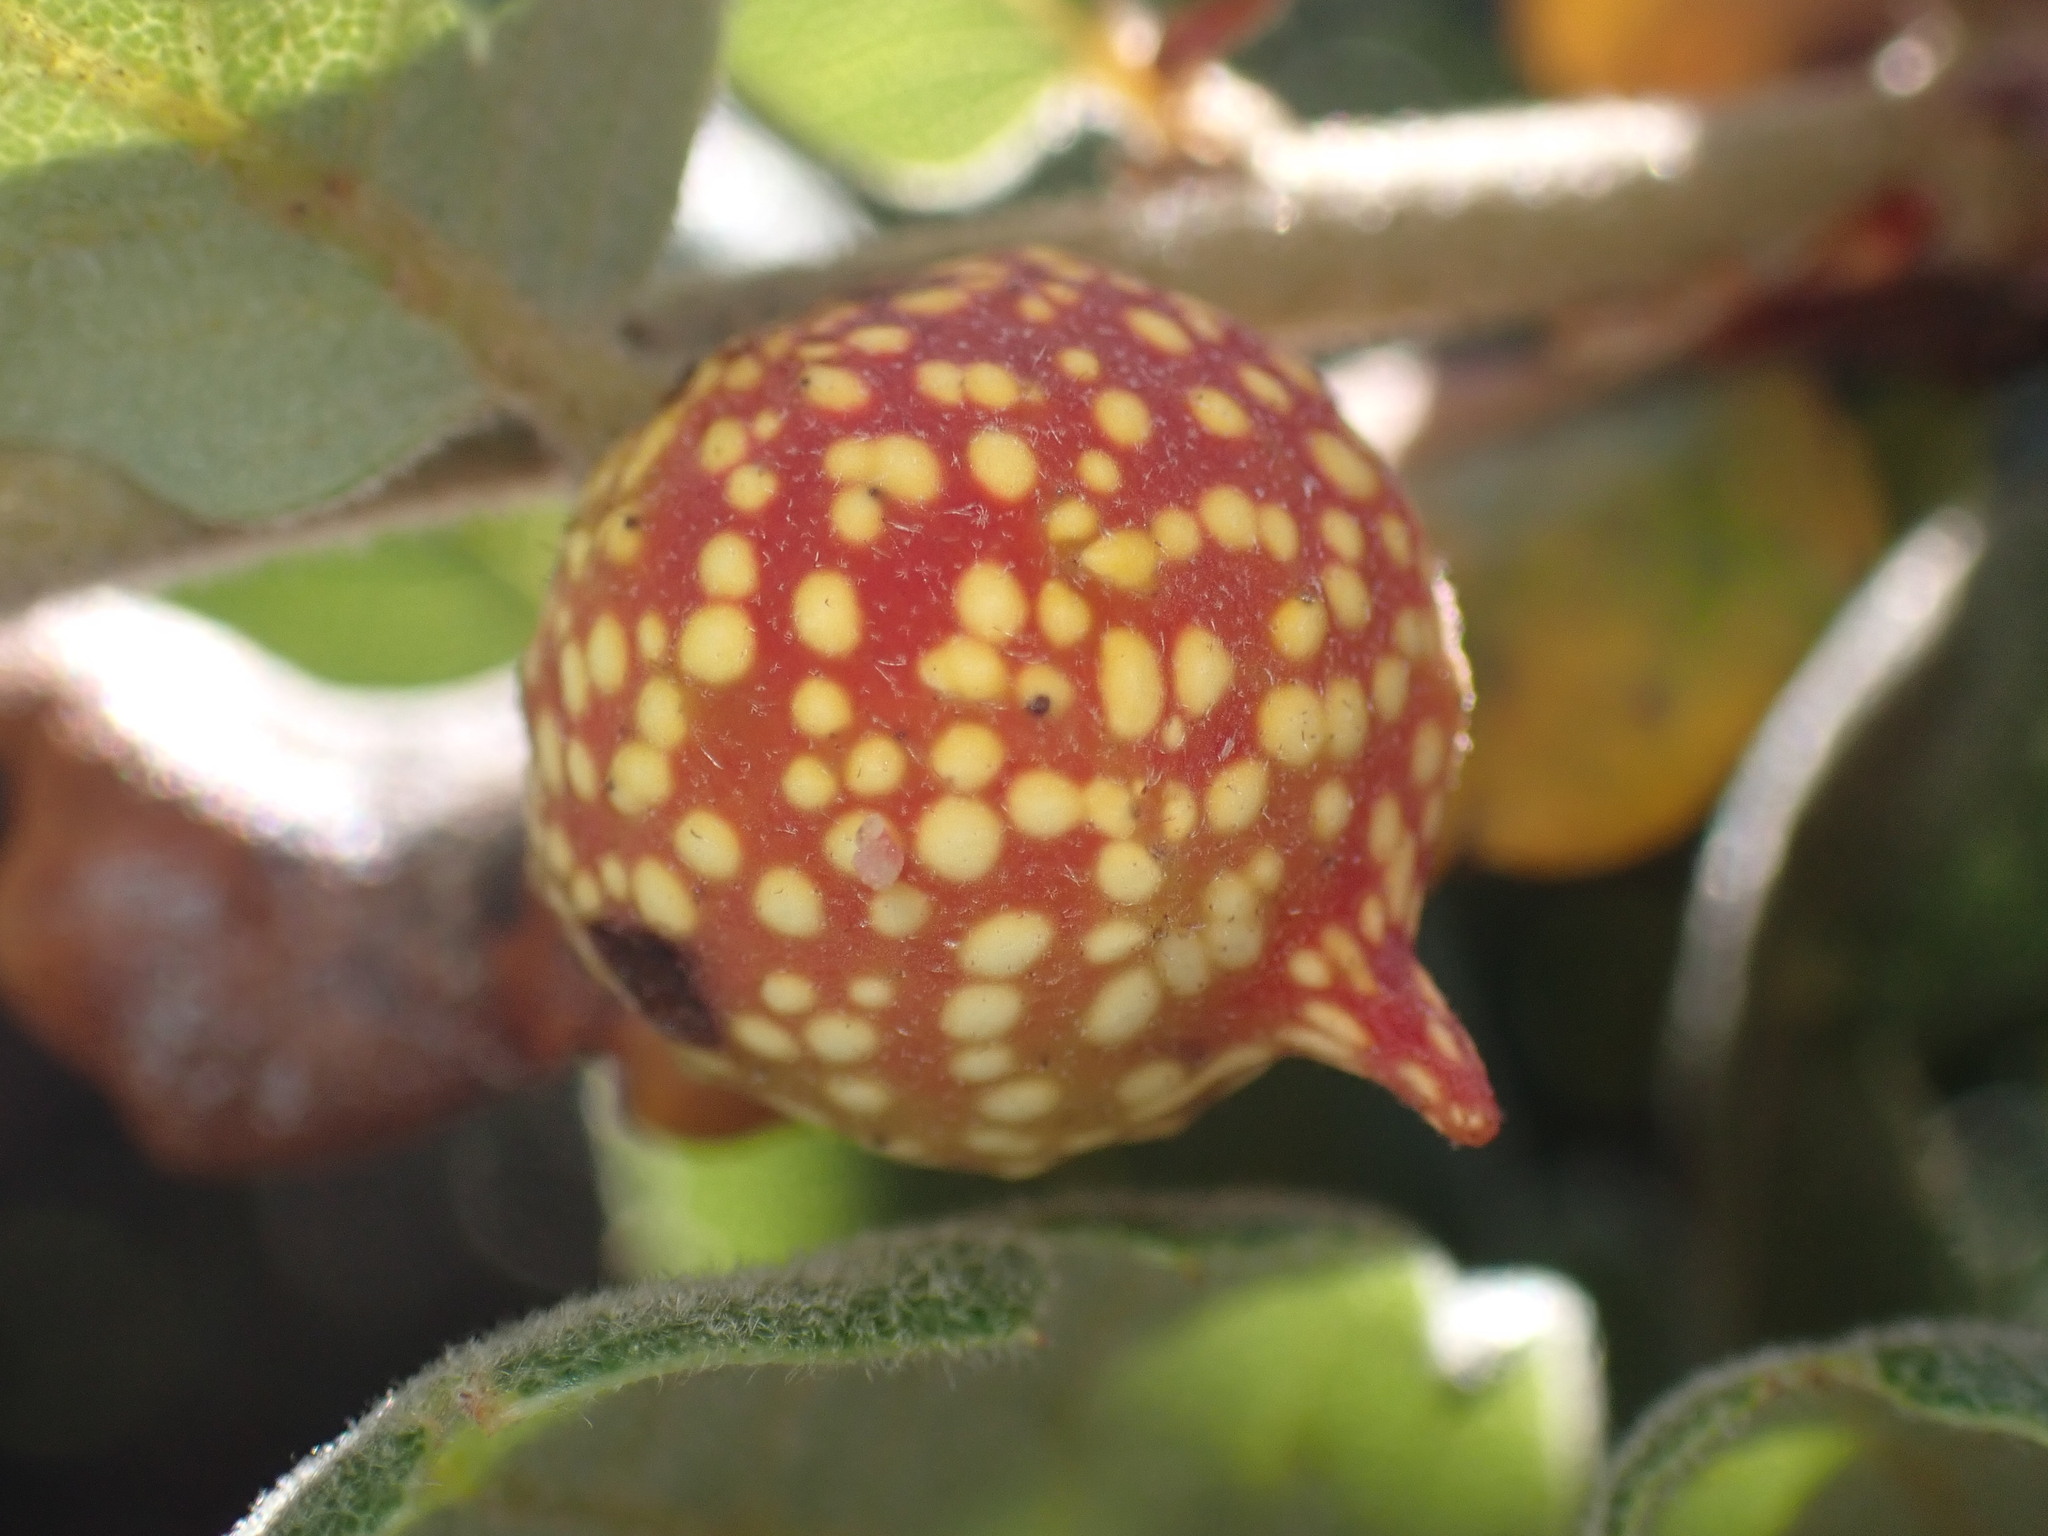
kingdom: Animalia
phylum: Arthropoda
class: Insecta
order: Hymenoptera
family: Cynipidae
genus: Burnettweldia
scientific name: Burnettweldia
